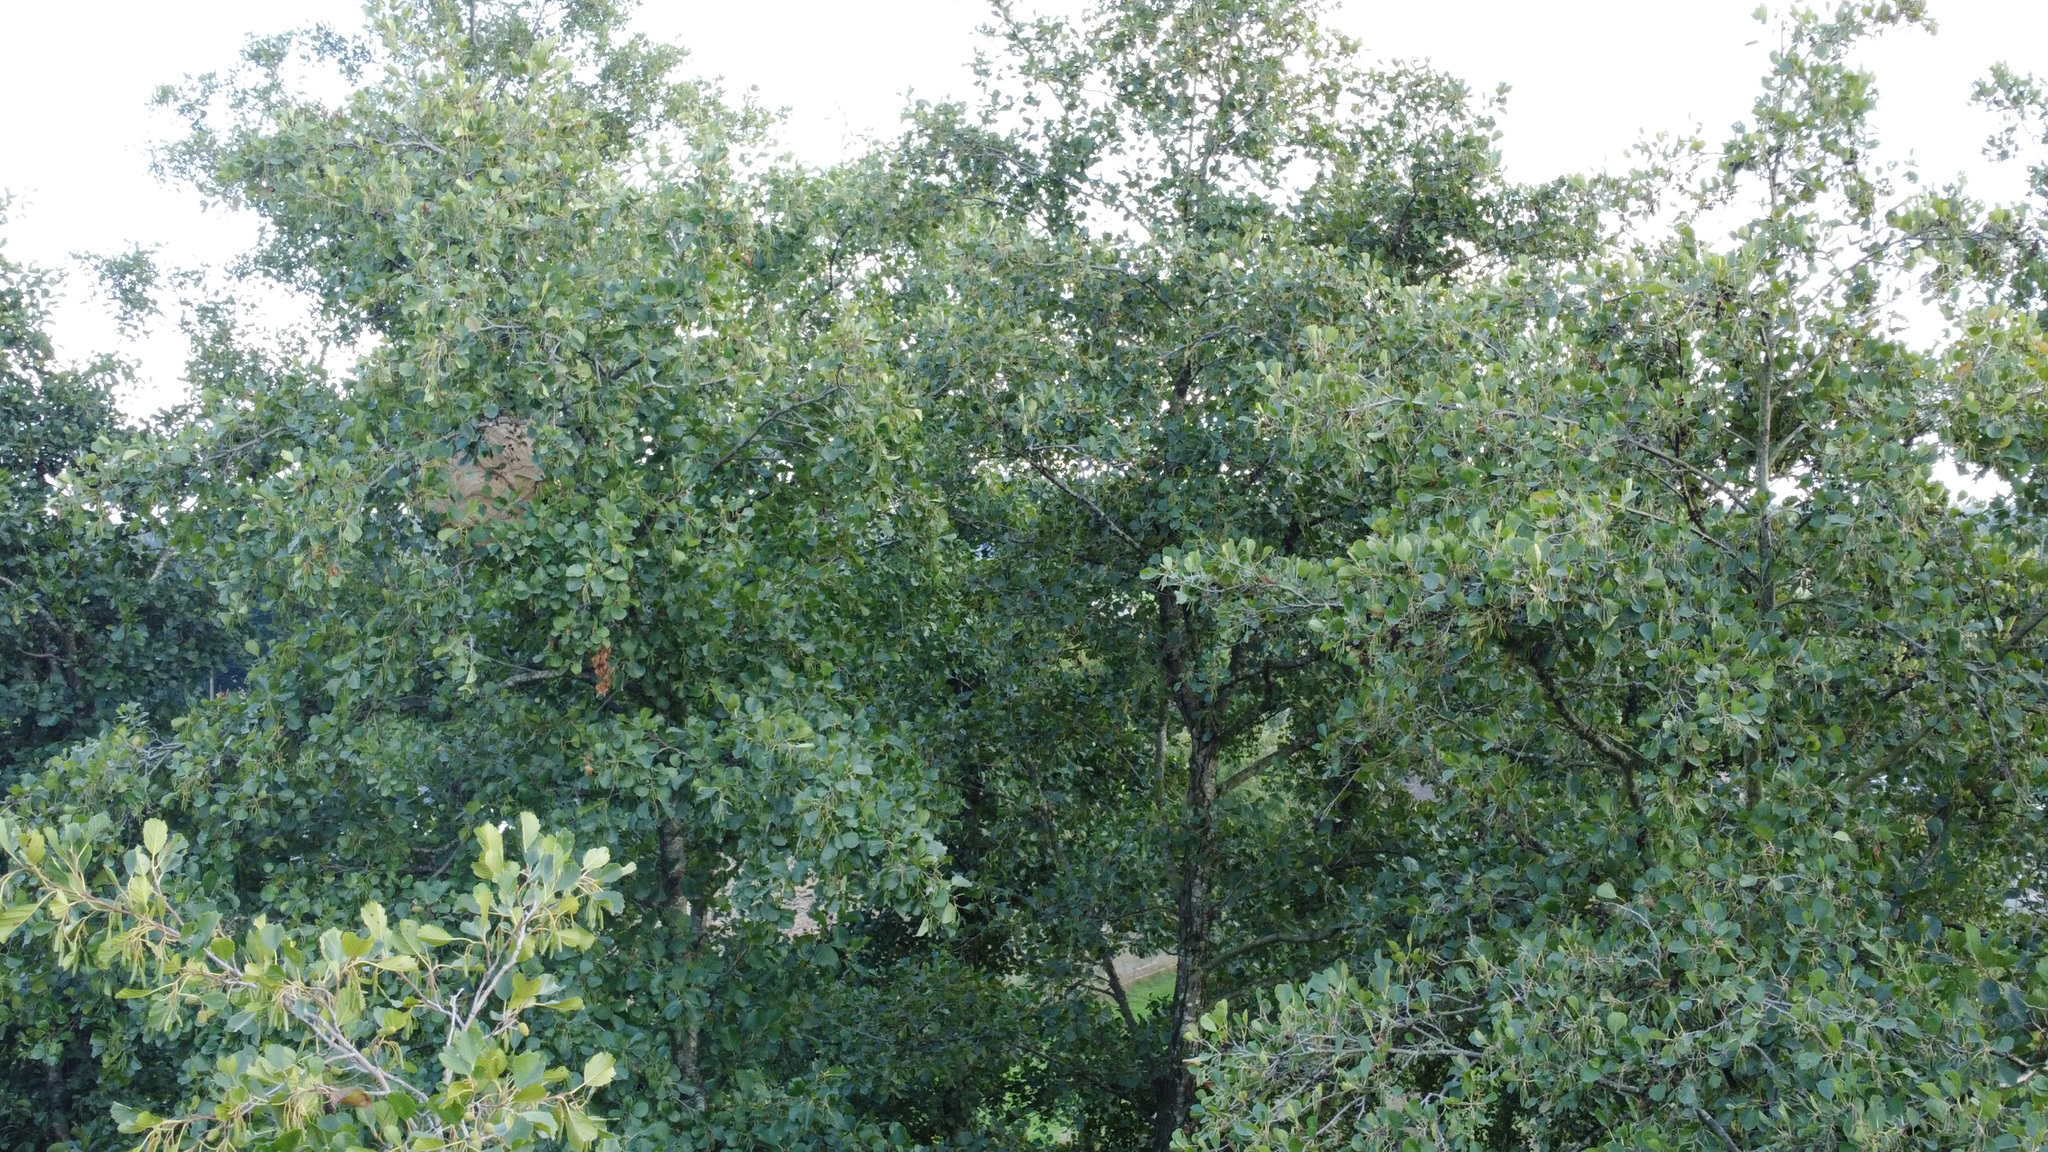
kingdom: Animalia
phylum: Arthropoda
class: Insecta
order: Hymenoptera
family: Vespidae
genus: Vespa
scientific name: Vespa velutina
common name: Asian hornet
